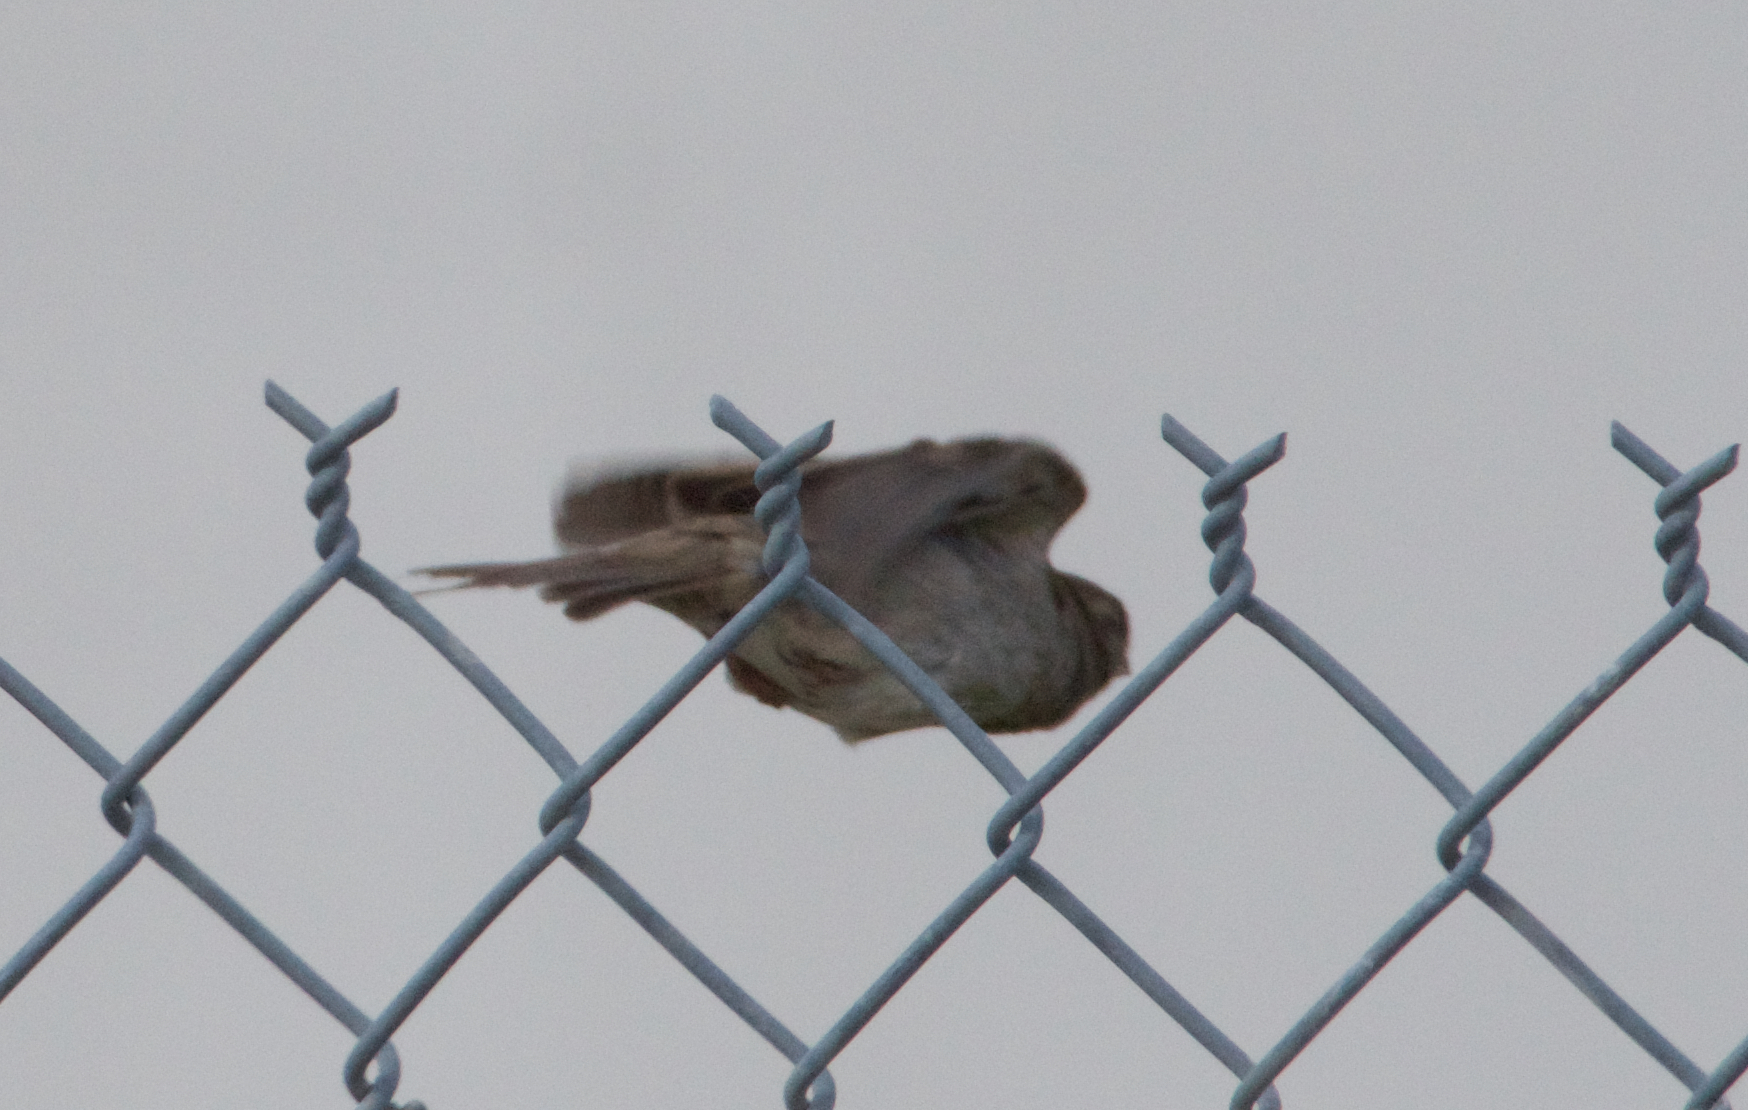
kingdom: Animalia
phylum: Chordata
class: Aves
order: Passeriformes
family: Passeridae
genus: Passer
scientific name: Passer domesticus
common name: House sparrow
